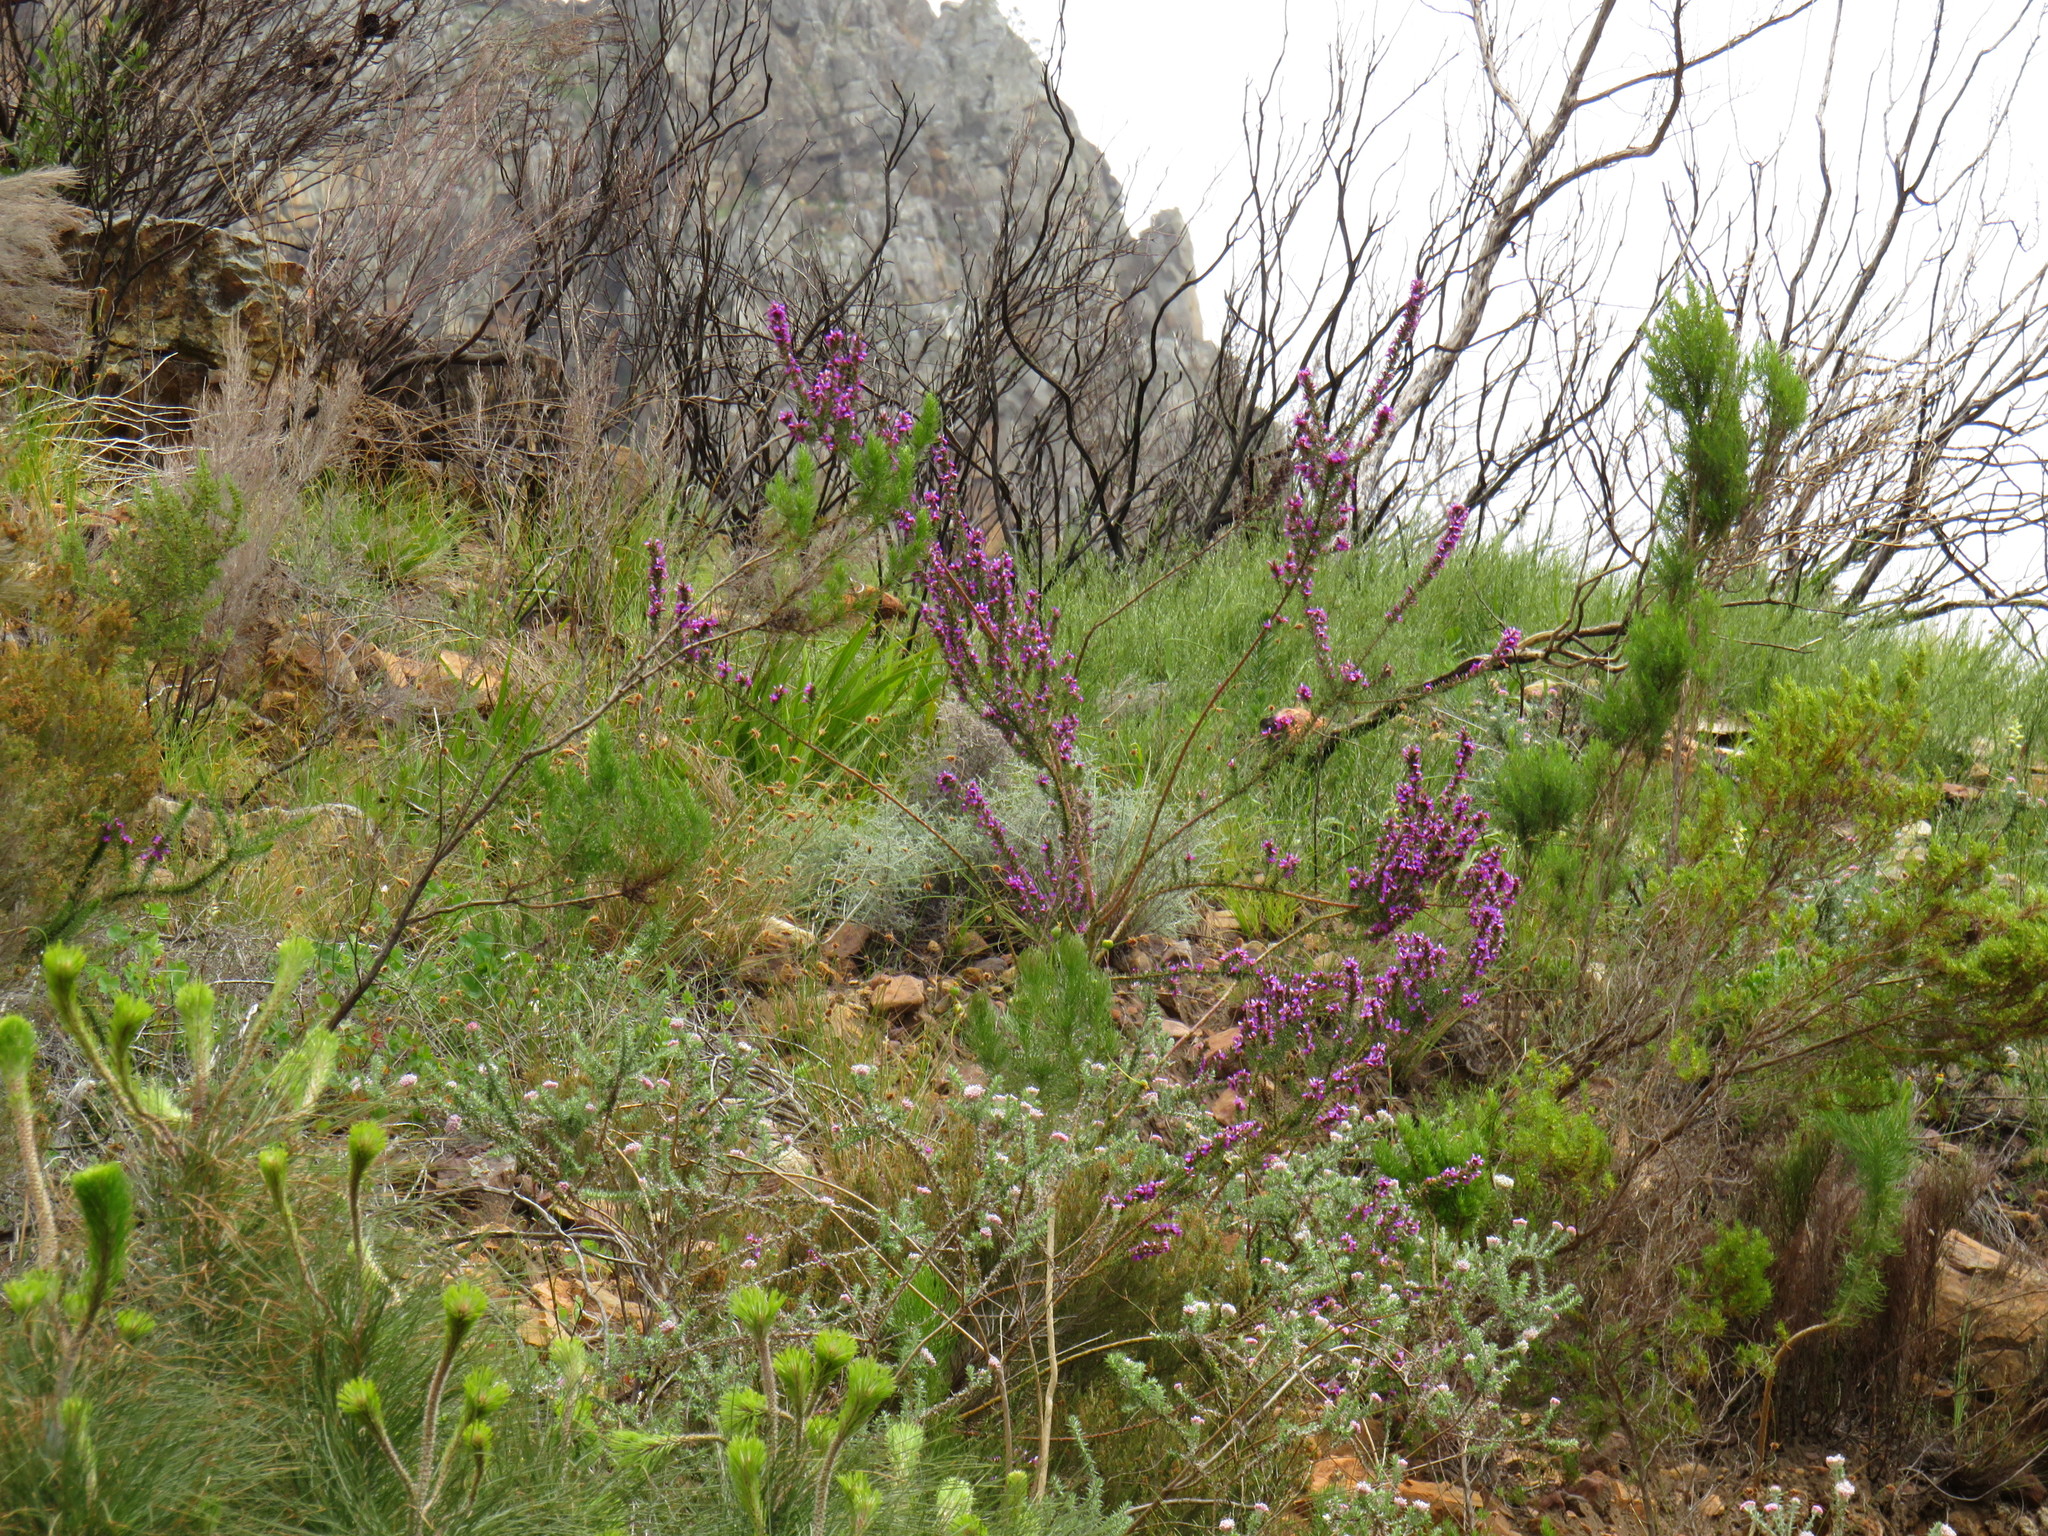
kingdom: Plantae
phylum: Tracheophyta
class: Magnoliopsida
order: Fabales
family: Polygalaceae
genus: Muraltia
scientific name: Muraltia heisteria
